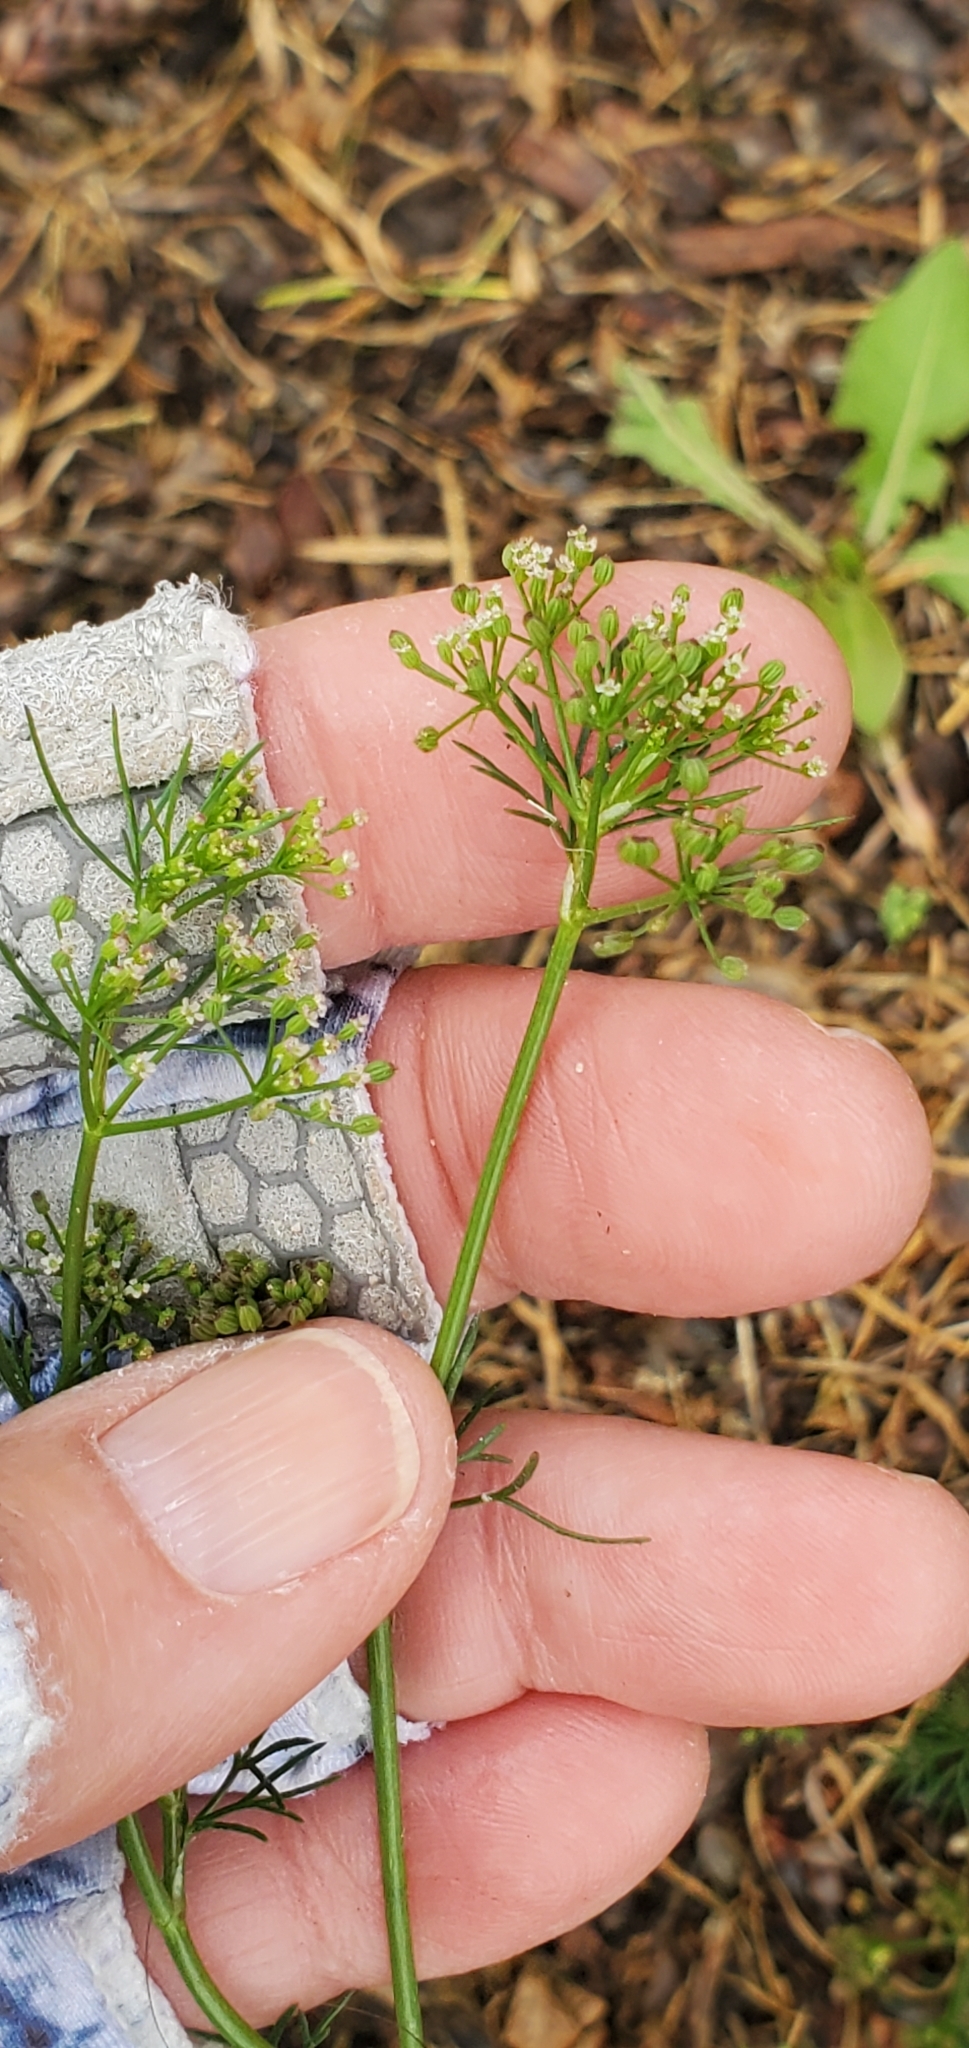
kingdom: Plantae
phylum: Tracheophyta
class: Magnoliopsida
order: Apiales
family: Apiaceae
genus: Cyclospermum
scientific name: Cyclospermum leptophyllum
